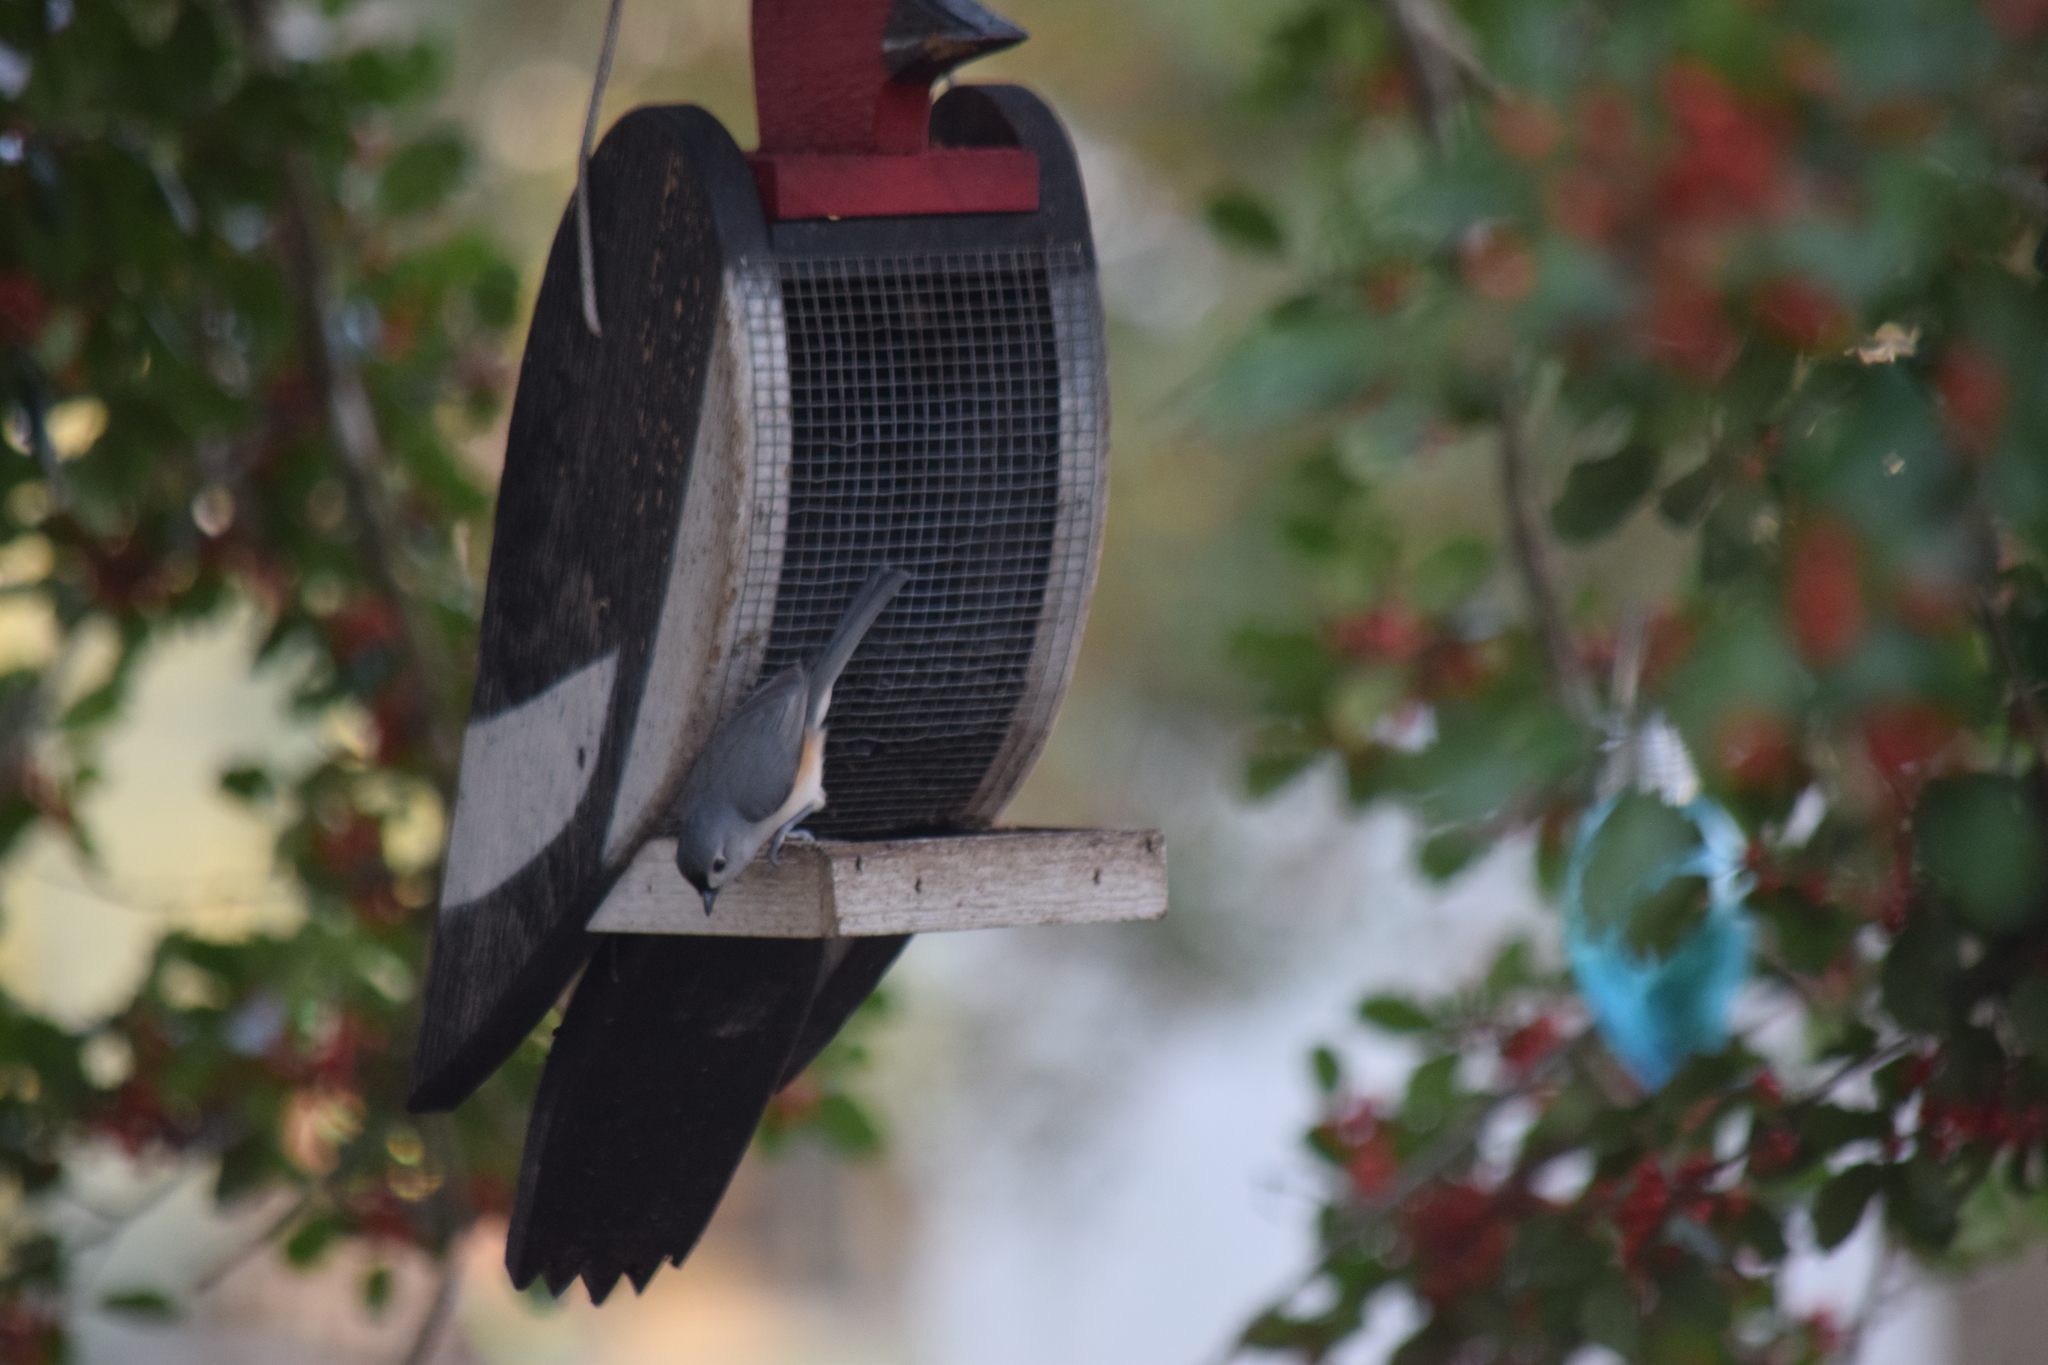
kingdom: Animalia
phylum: Chordata
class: Aves
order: Passeriformes
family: Paridae
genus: Baeolophus
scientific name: Baeolophus bicolor
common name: Tufted titmouse
